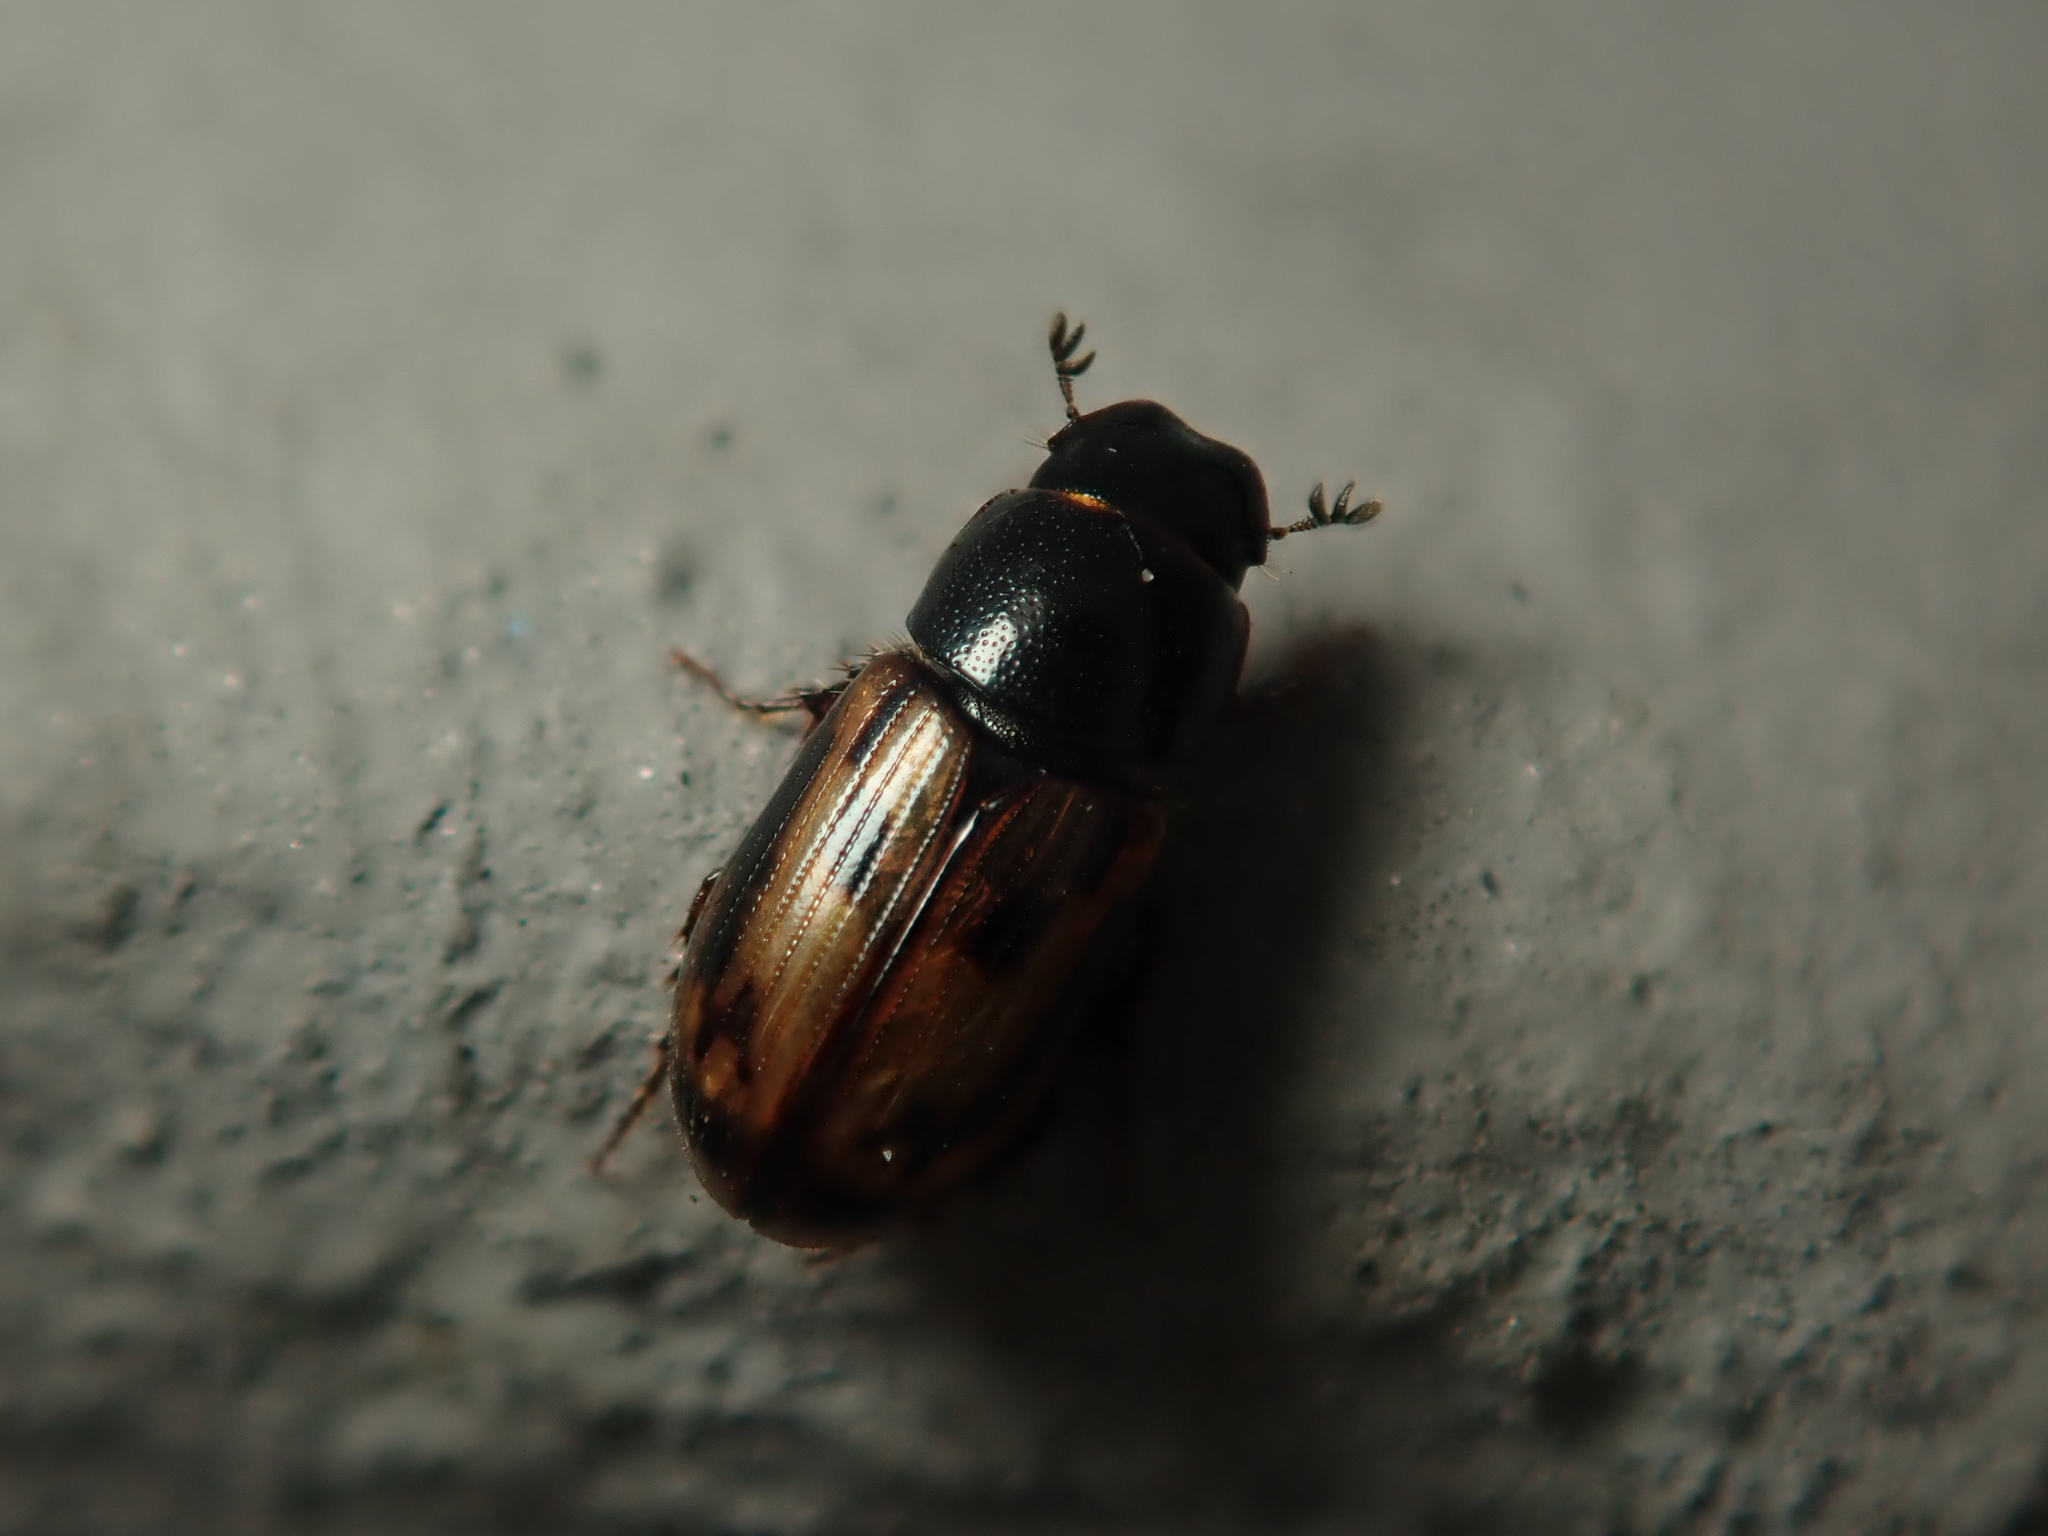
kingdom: Animalia
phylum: Arthropoda
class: Insecta
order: Coleoptera
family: Scarabaeidae
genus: Chilothorax
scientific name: Chilothorax distinctus
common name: Maculated dung beetle
